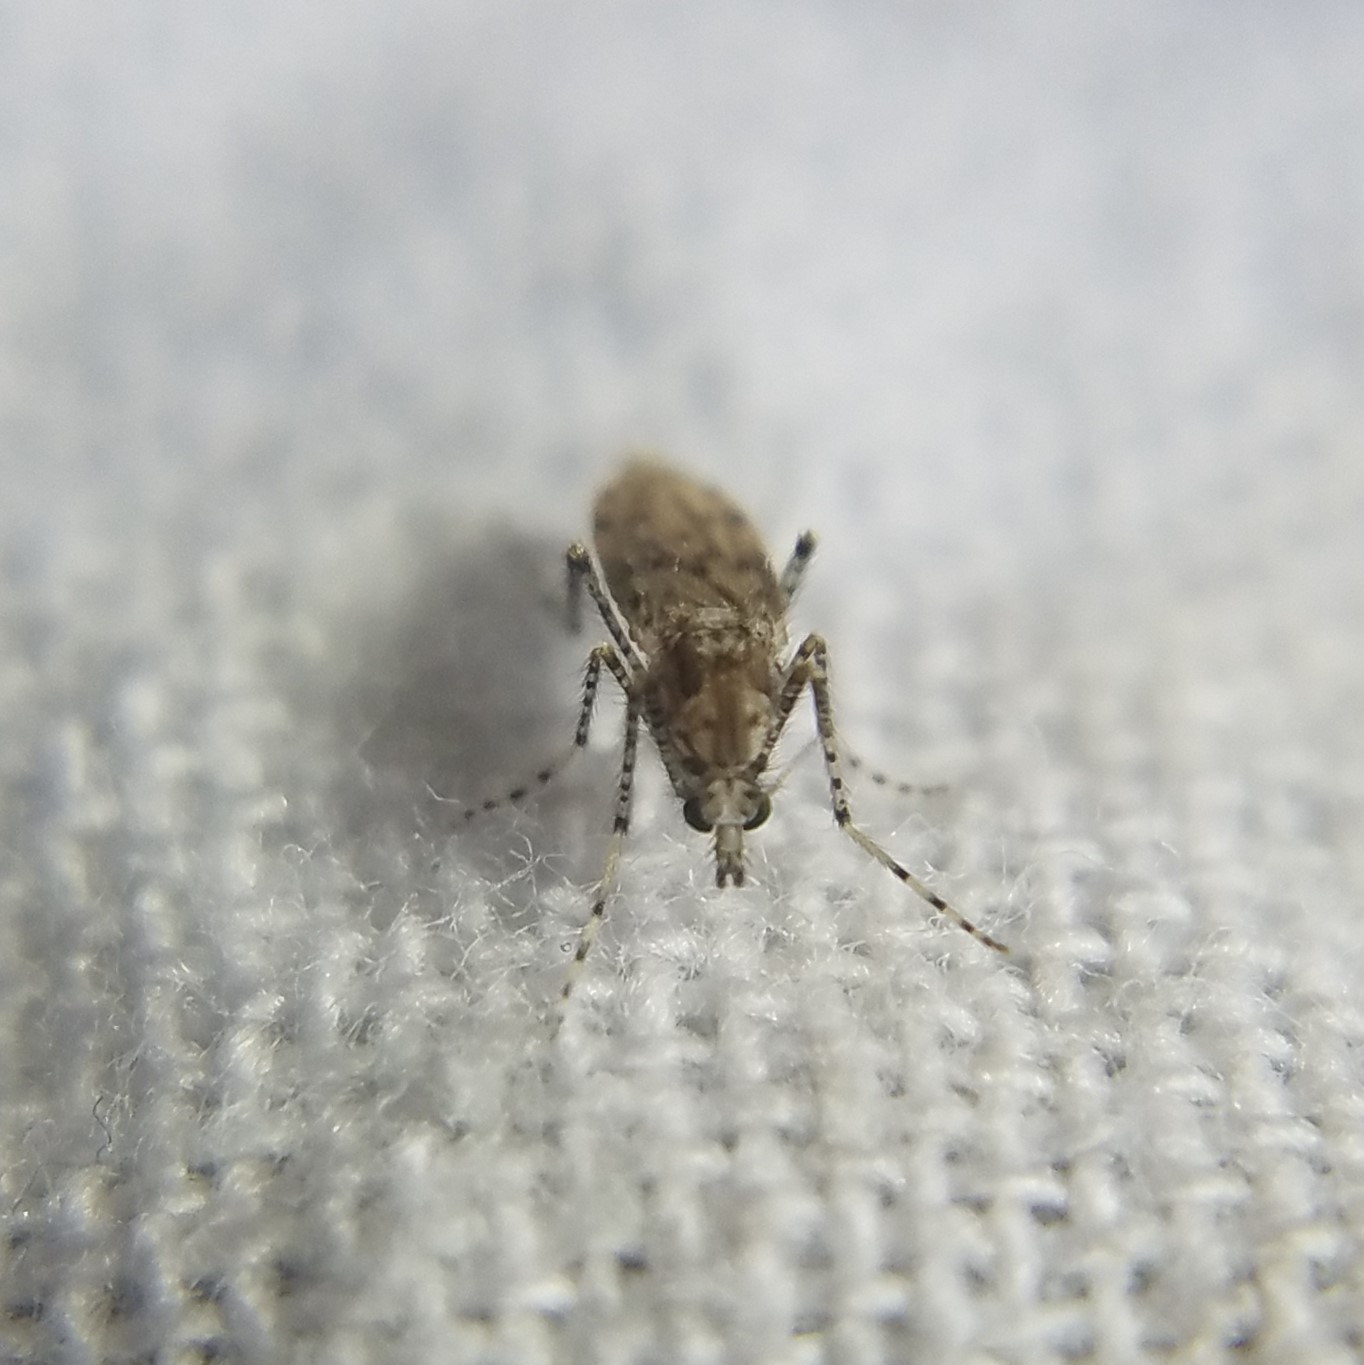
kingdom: Animalia
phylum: Arthropoda
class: Insecta
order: Diptera
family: Chaoboridae
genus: Chaoborus
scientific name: Chaoborus punctipennis
